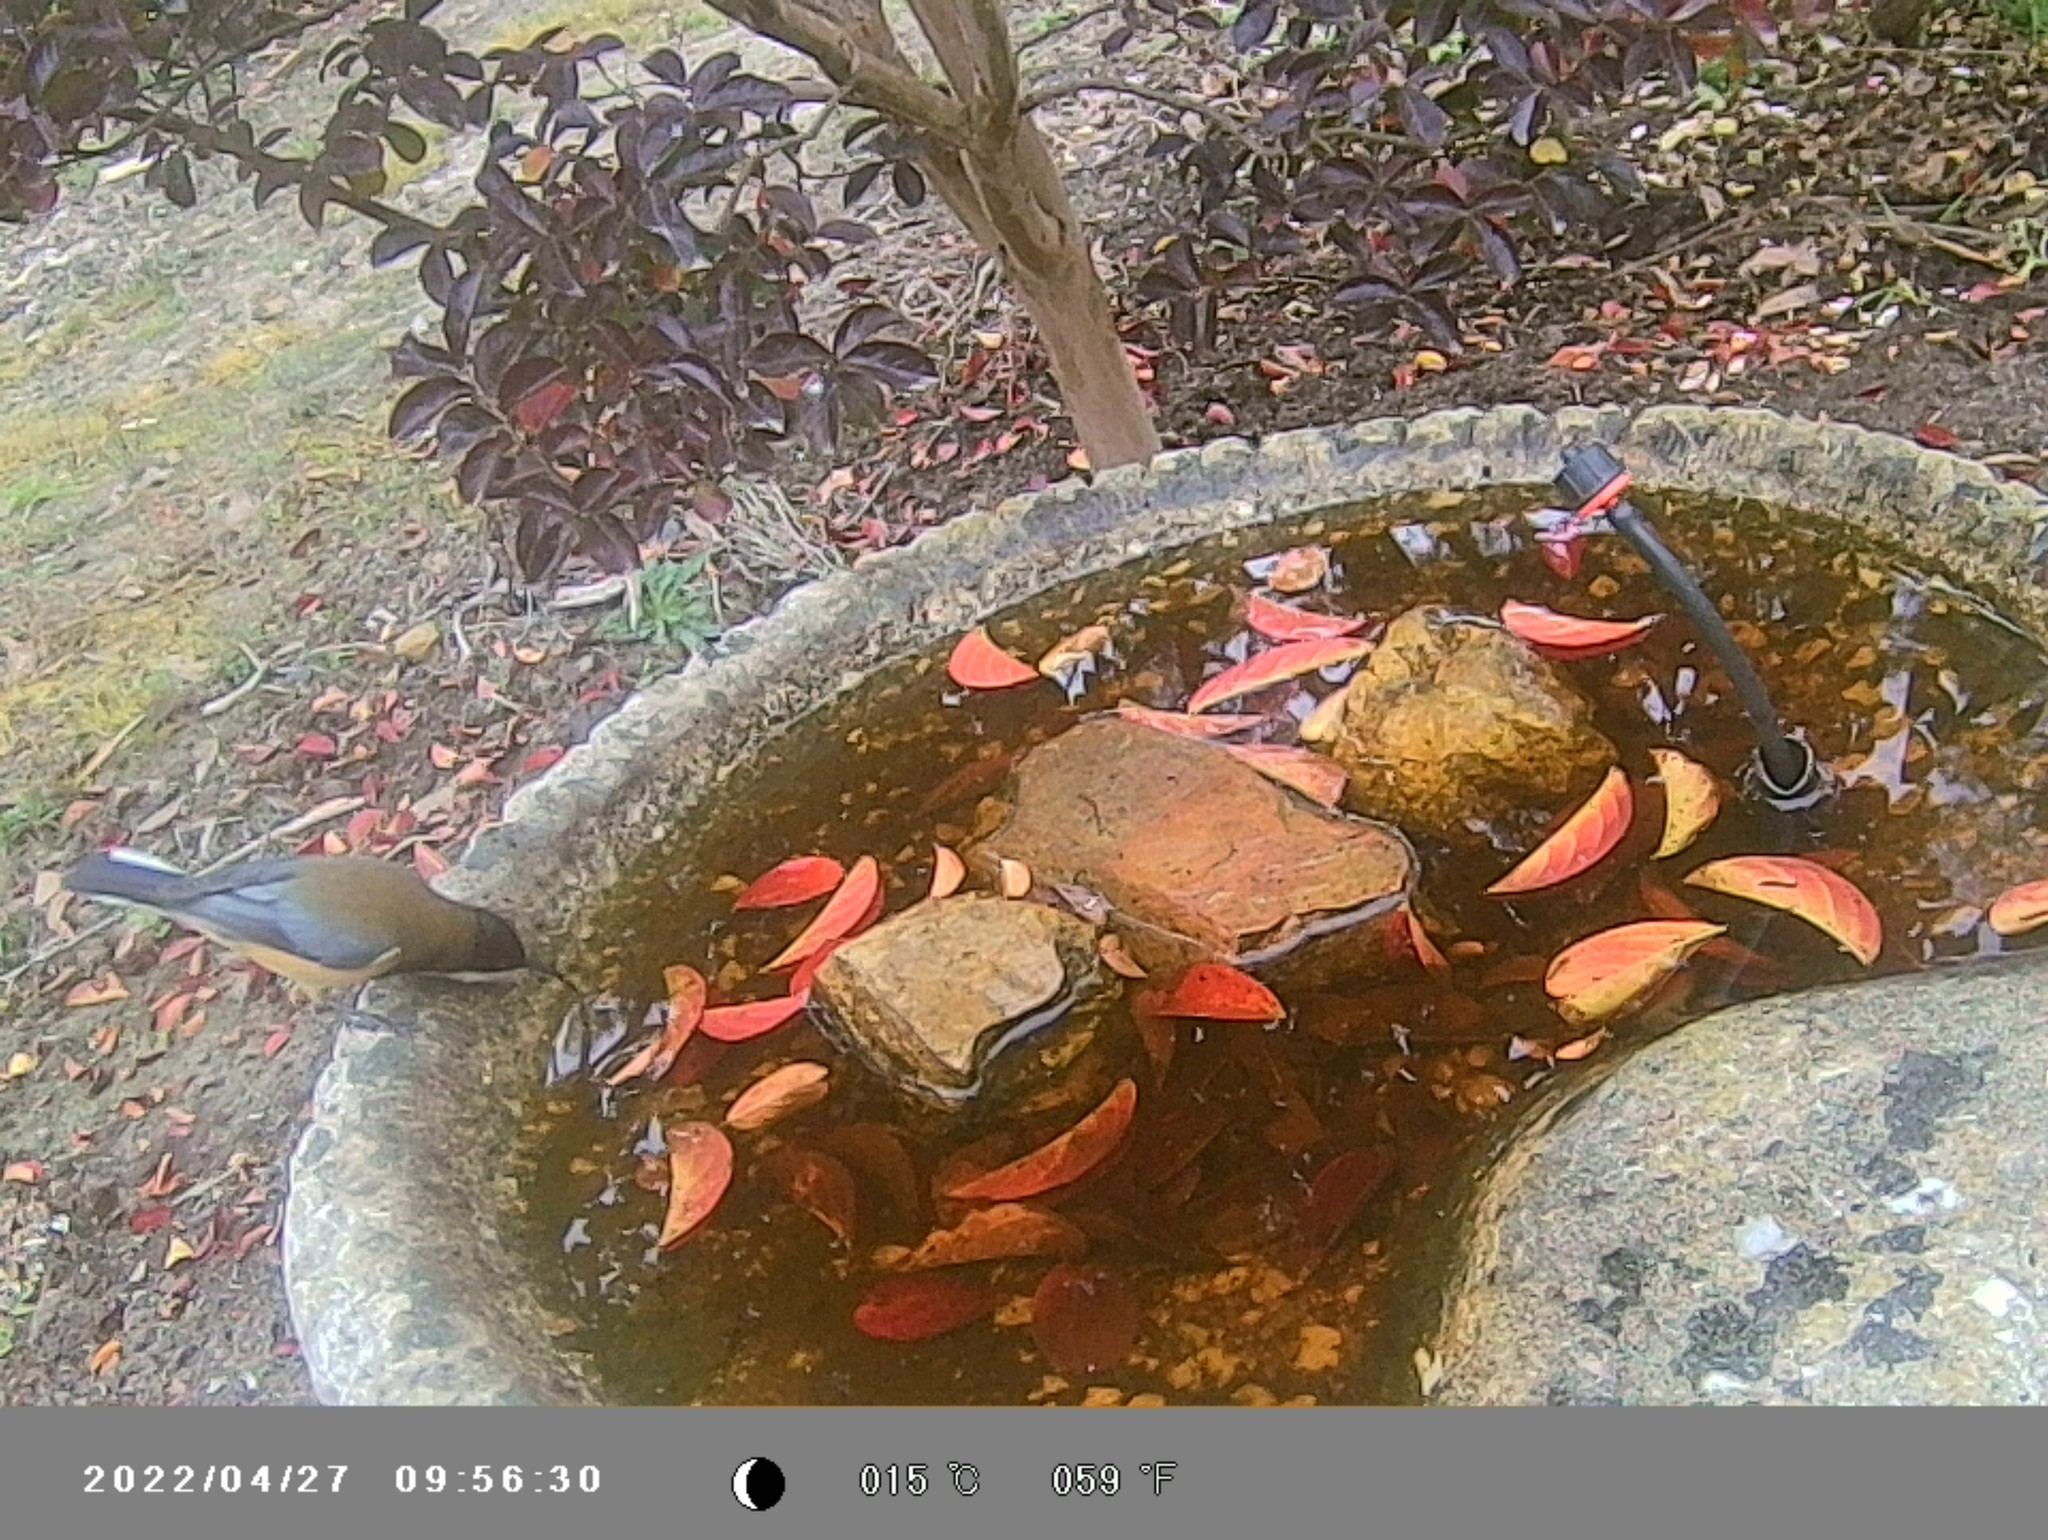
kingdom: Animalia
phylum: Chordata
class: Aves
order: Passeriformes
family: Meliphagidae
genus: Acanthorhynchus
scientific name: Acanthorhynchus tenuirostris
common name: Eastern spinebill
